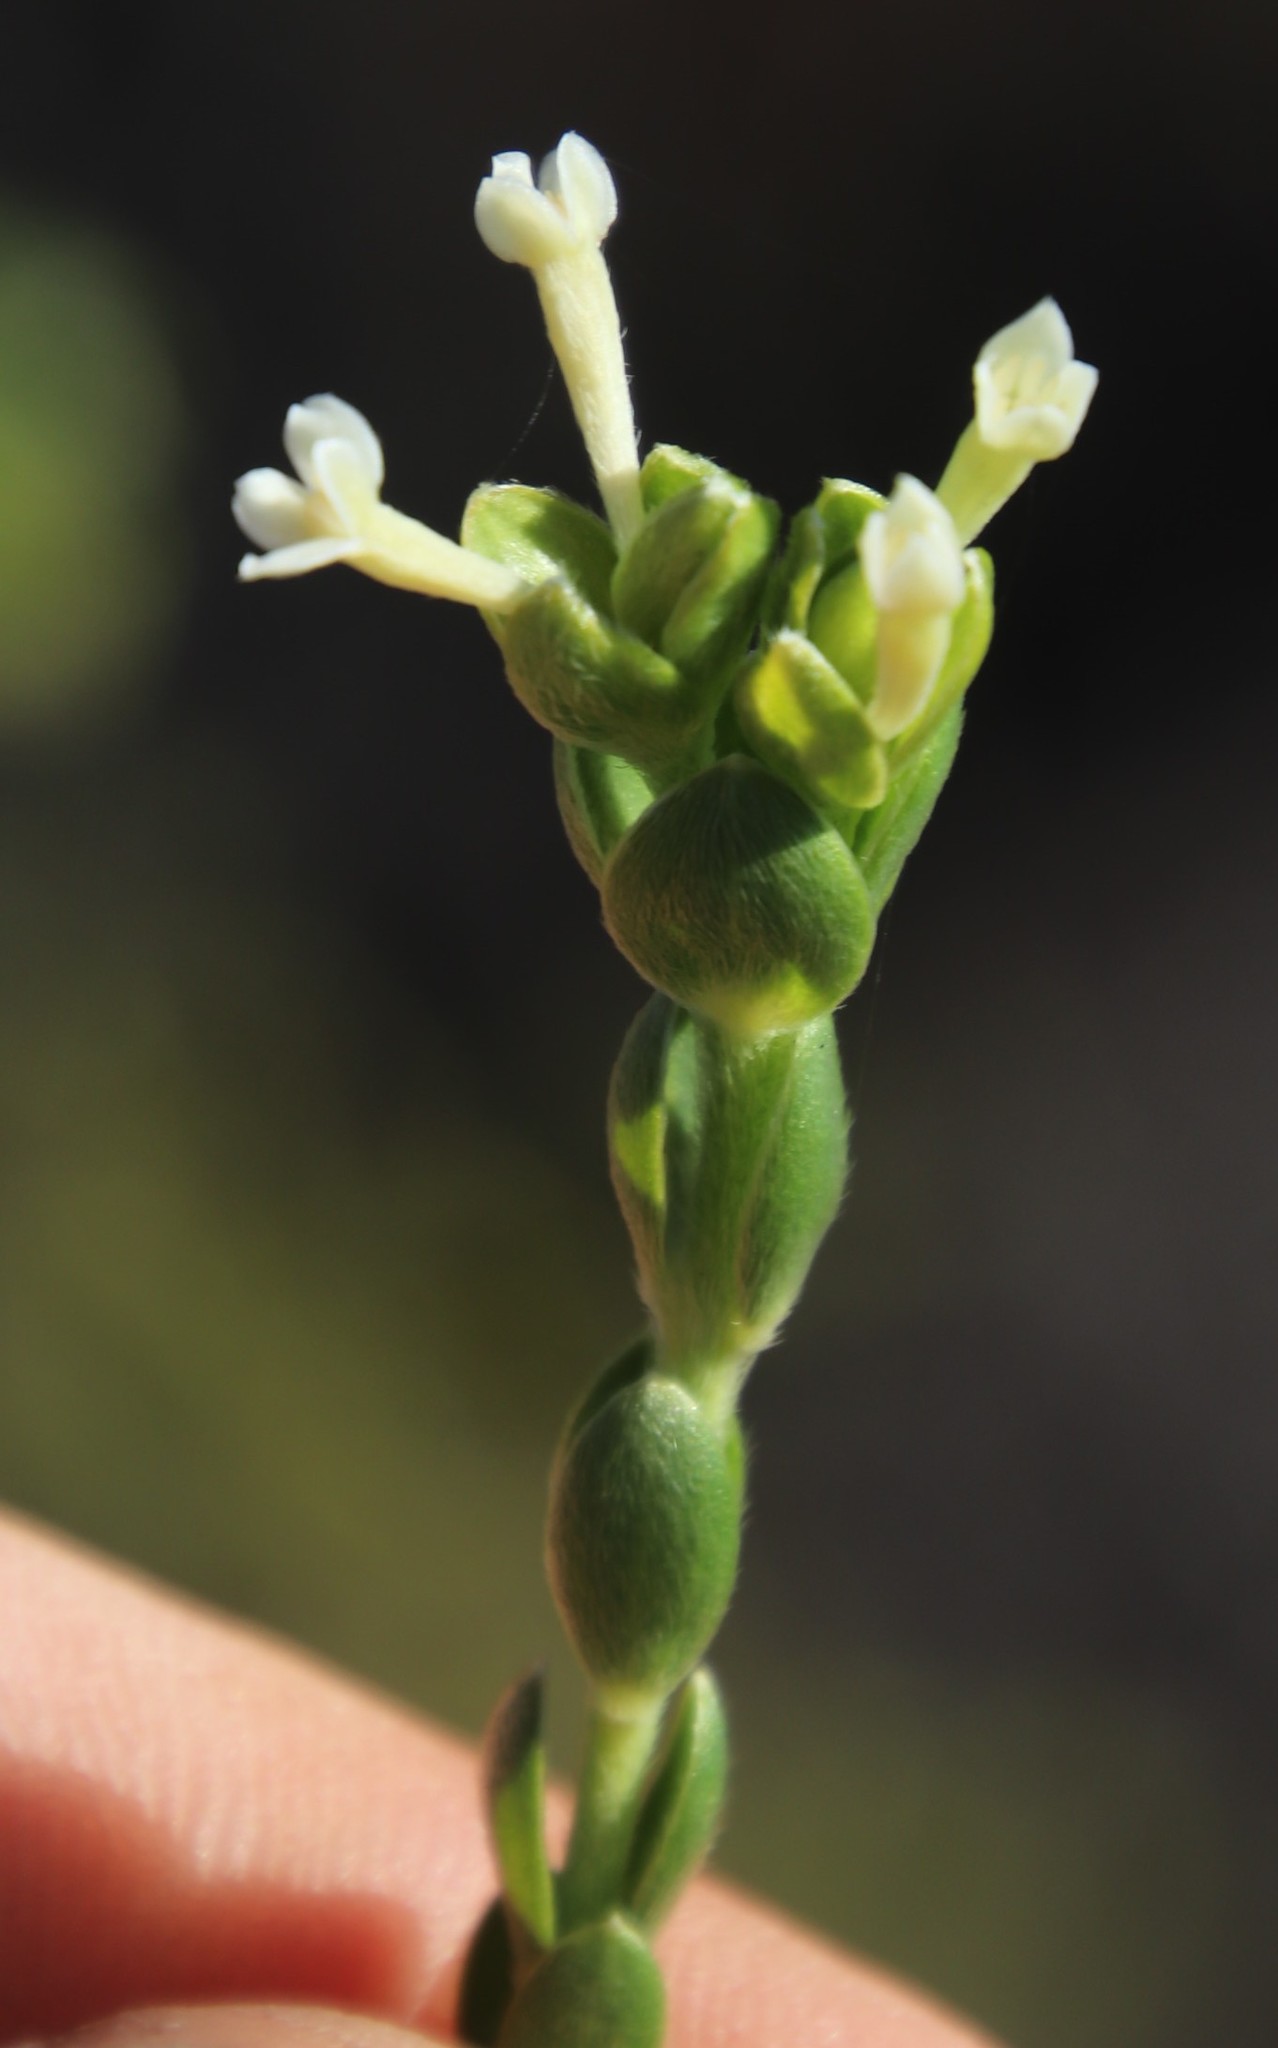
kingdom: Plantae
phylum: Tracheophyta
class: Magnoliopsida
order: Malvales
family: Thymelaeaceae
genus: Gnidia
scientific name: Gnidia sericea
